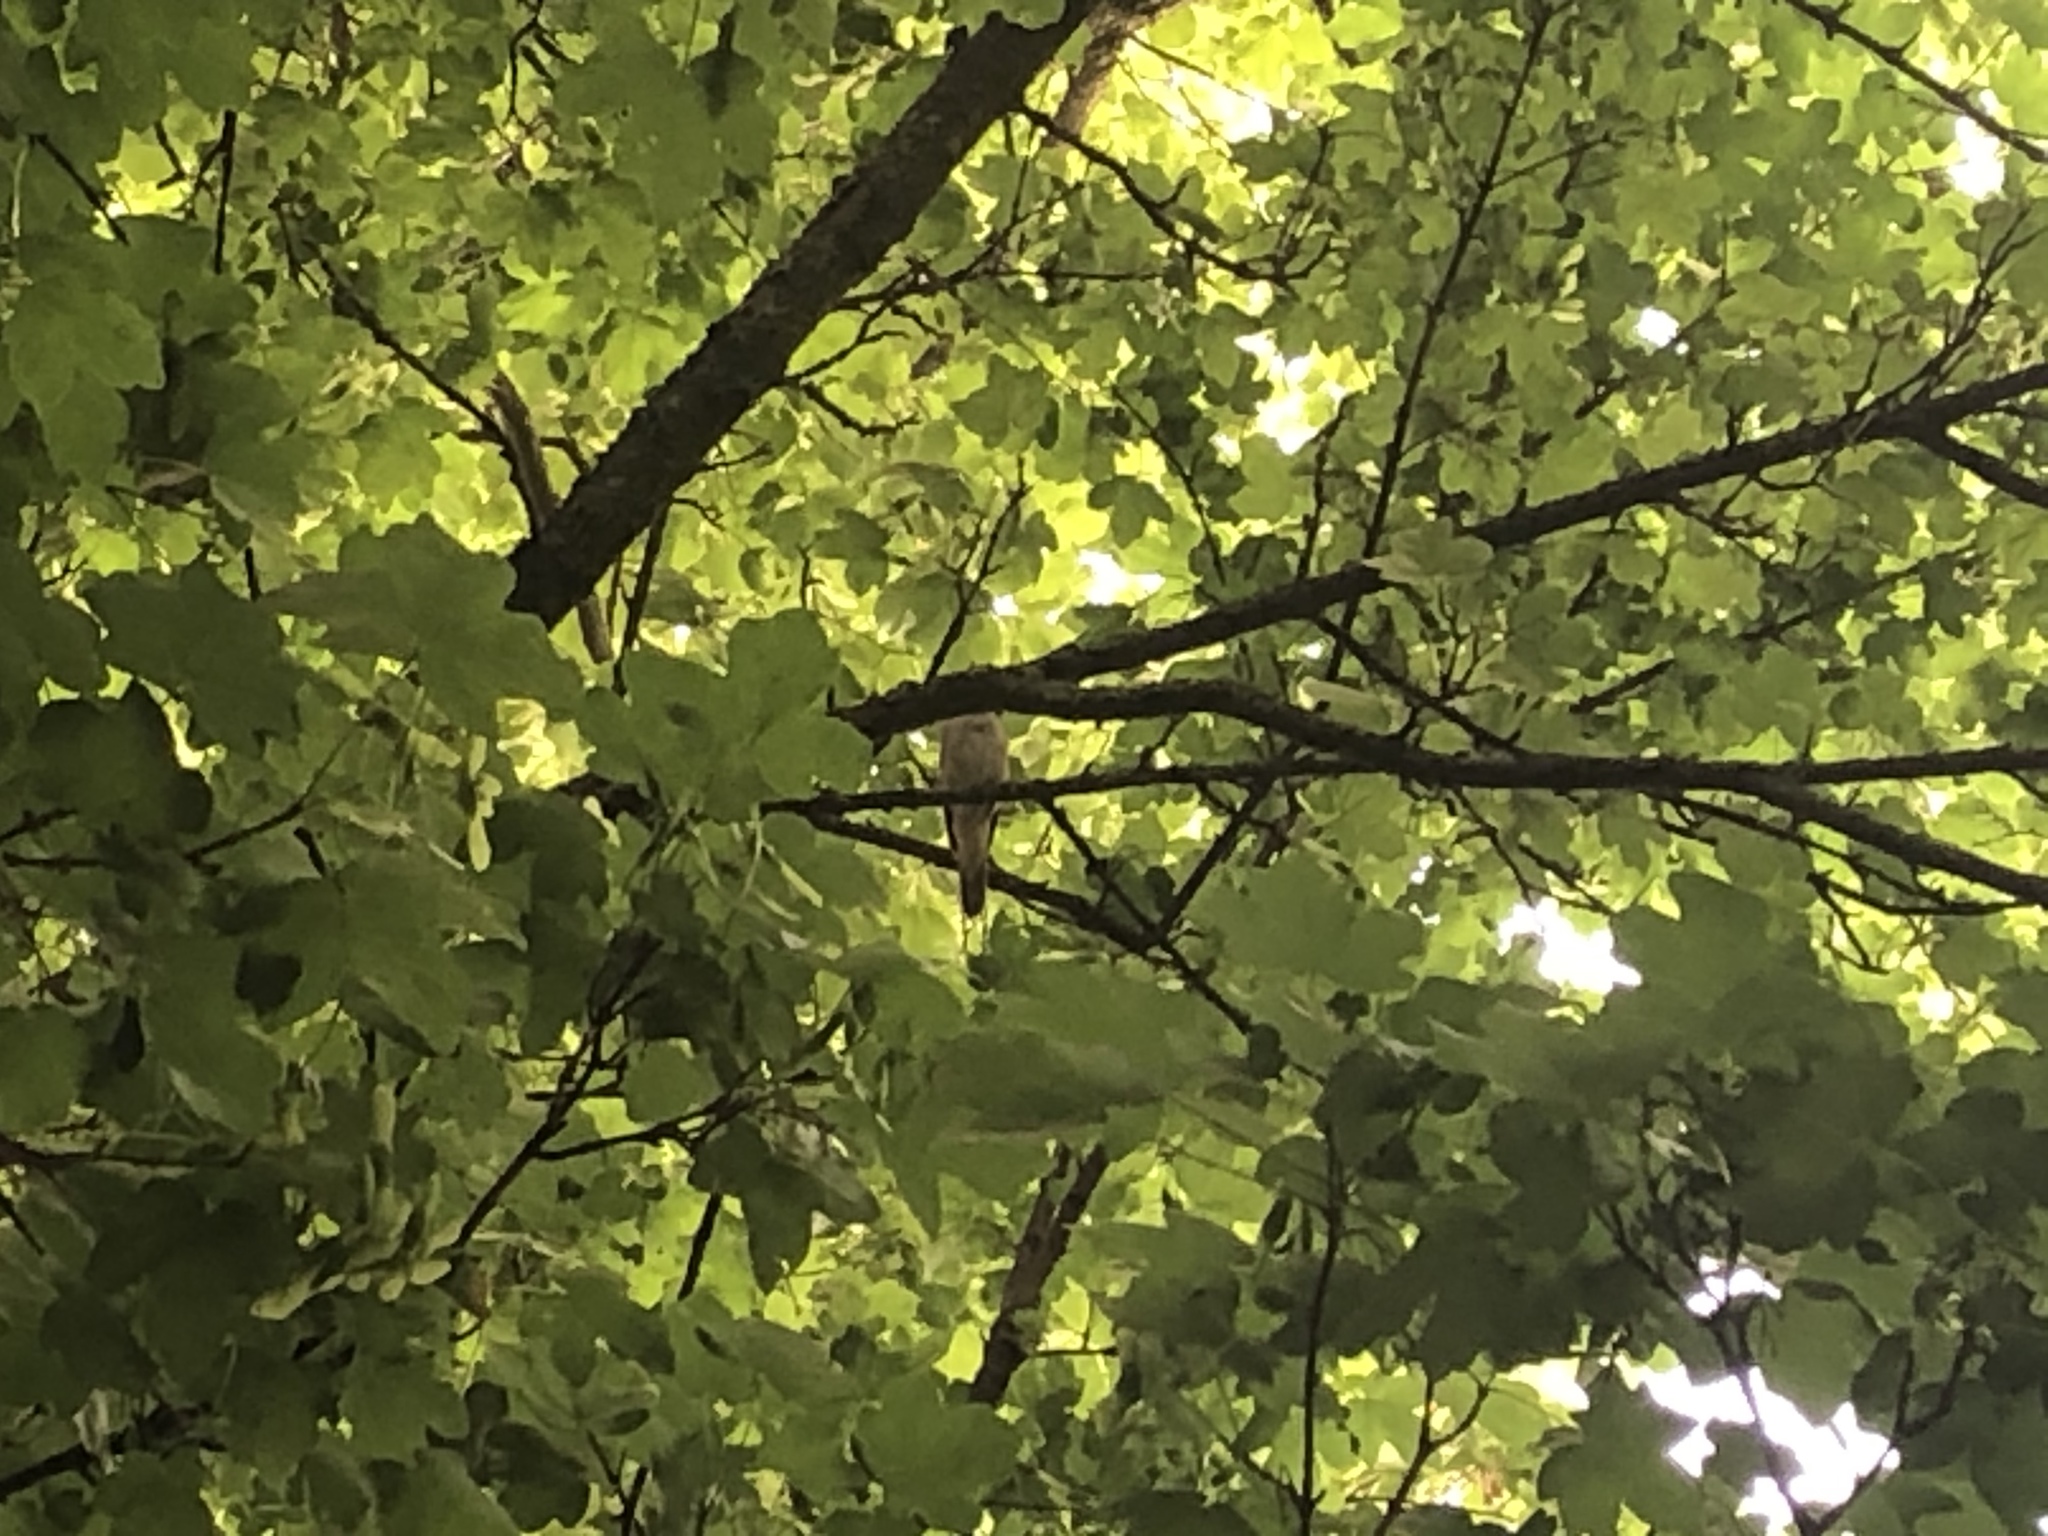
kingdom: Animalia
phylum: Chordata
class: Aves
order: Passeriformes
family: Muscicapidae
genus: Luscinia
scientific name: Luscinia megarhynchos
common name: Common nightingale
